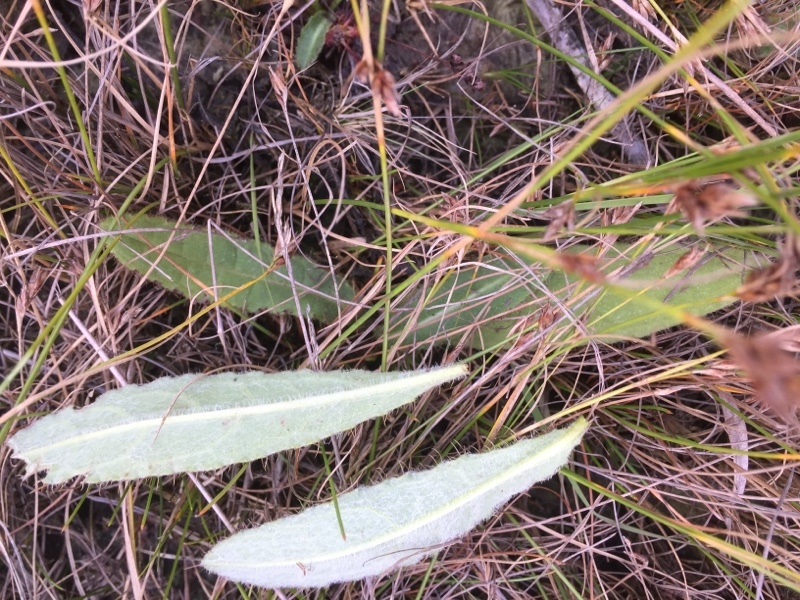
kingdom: Plantae
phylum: Tracheophyta
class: Magnoliopsida
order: Asterales
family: Asteraceae
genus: Cirsium
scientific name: Cirsium dissectum
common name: Meadow thistle
